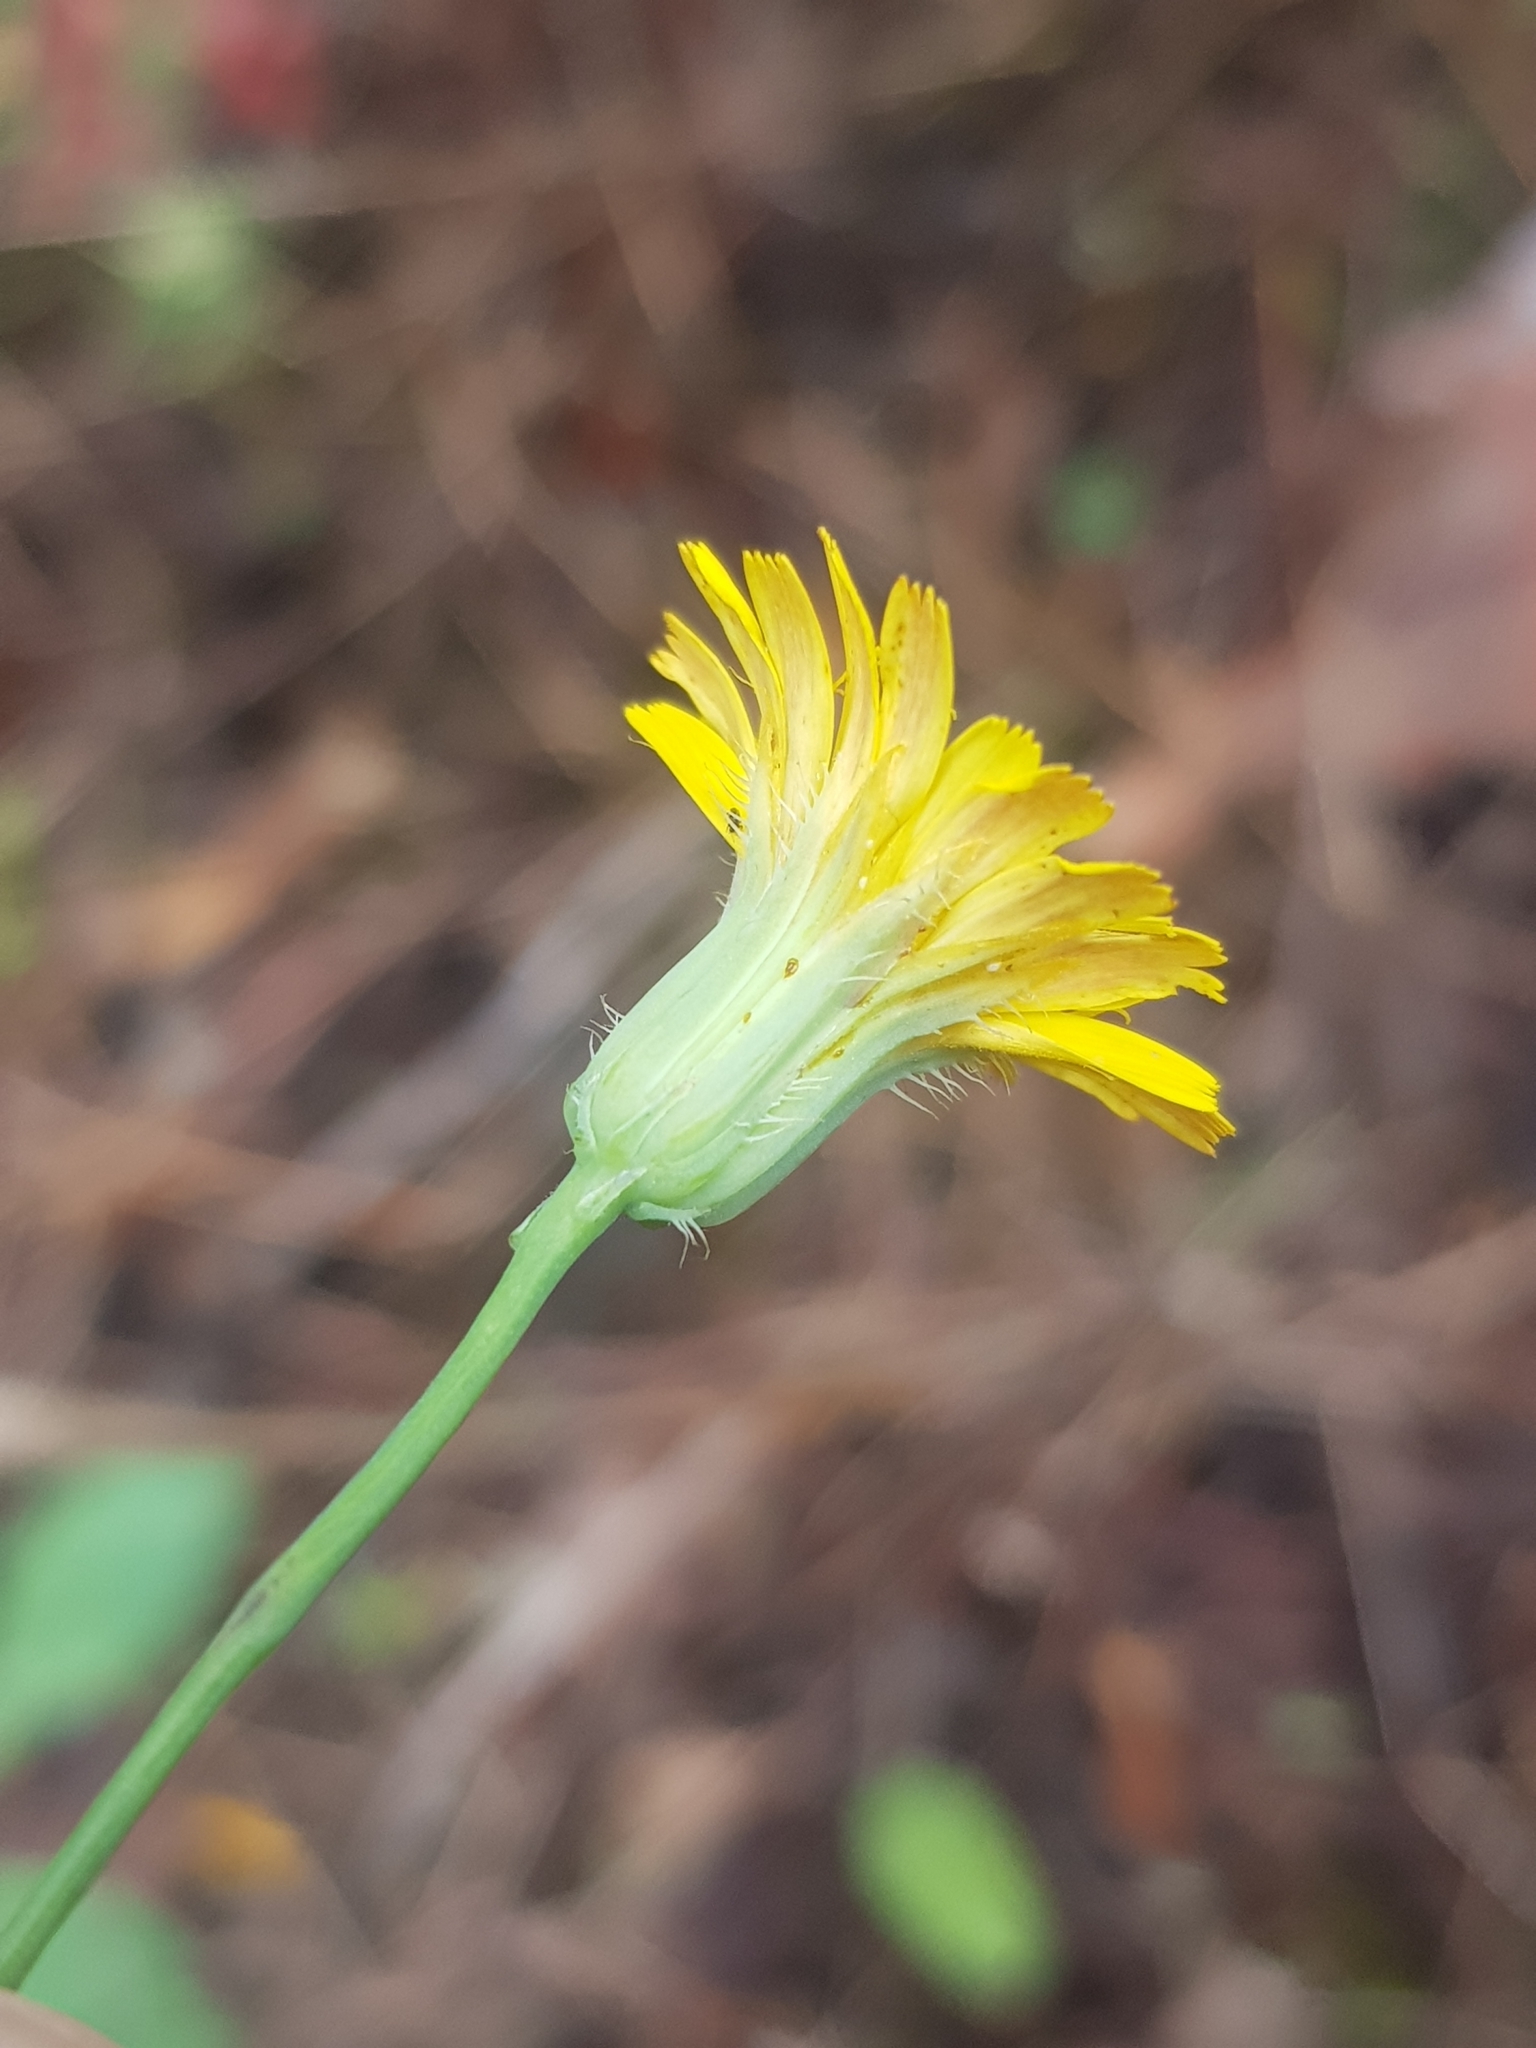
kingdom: Plantae
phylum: Tracheophyta
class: Magnoliopsida
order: Asterales
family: Asteraceae
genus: Achyrophorus
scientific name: Achyrophorus laevigatus
